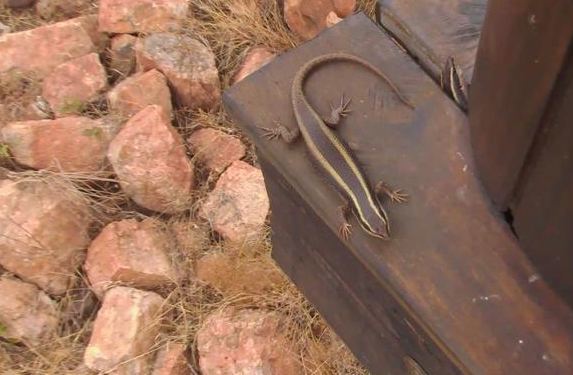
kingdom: Animalia
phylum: Chordata
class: Squamata
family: Scincidae
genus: Trachylepis
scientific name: Trachylepis striata
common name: African striped mabuya
